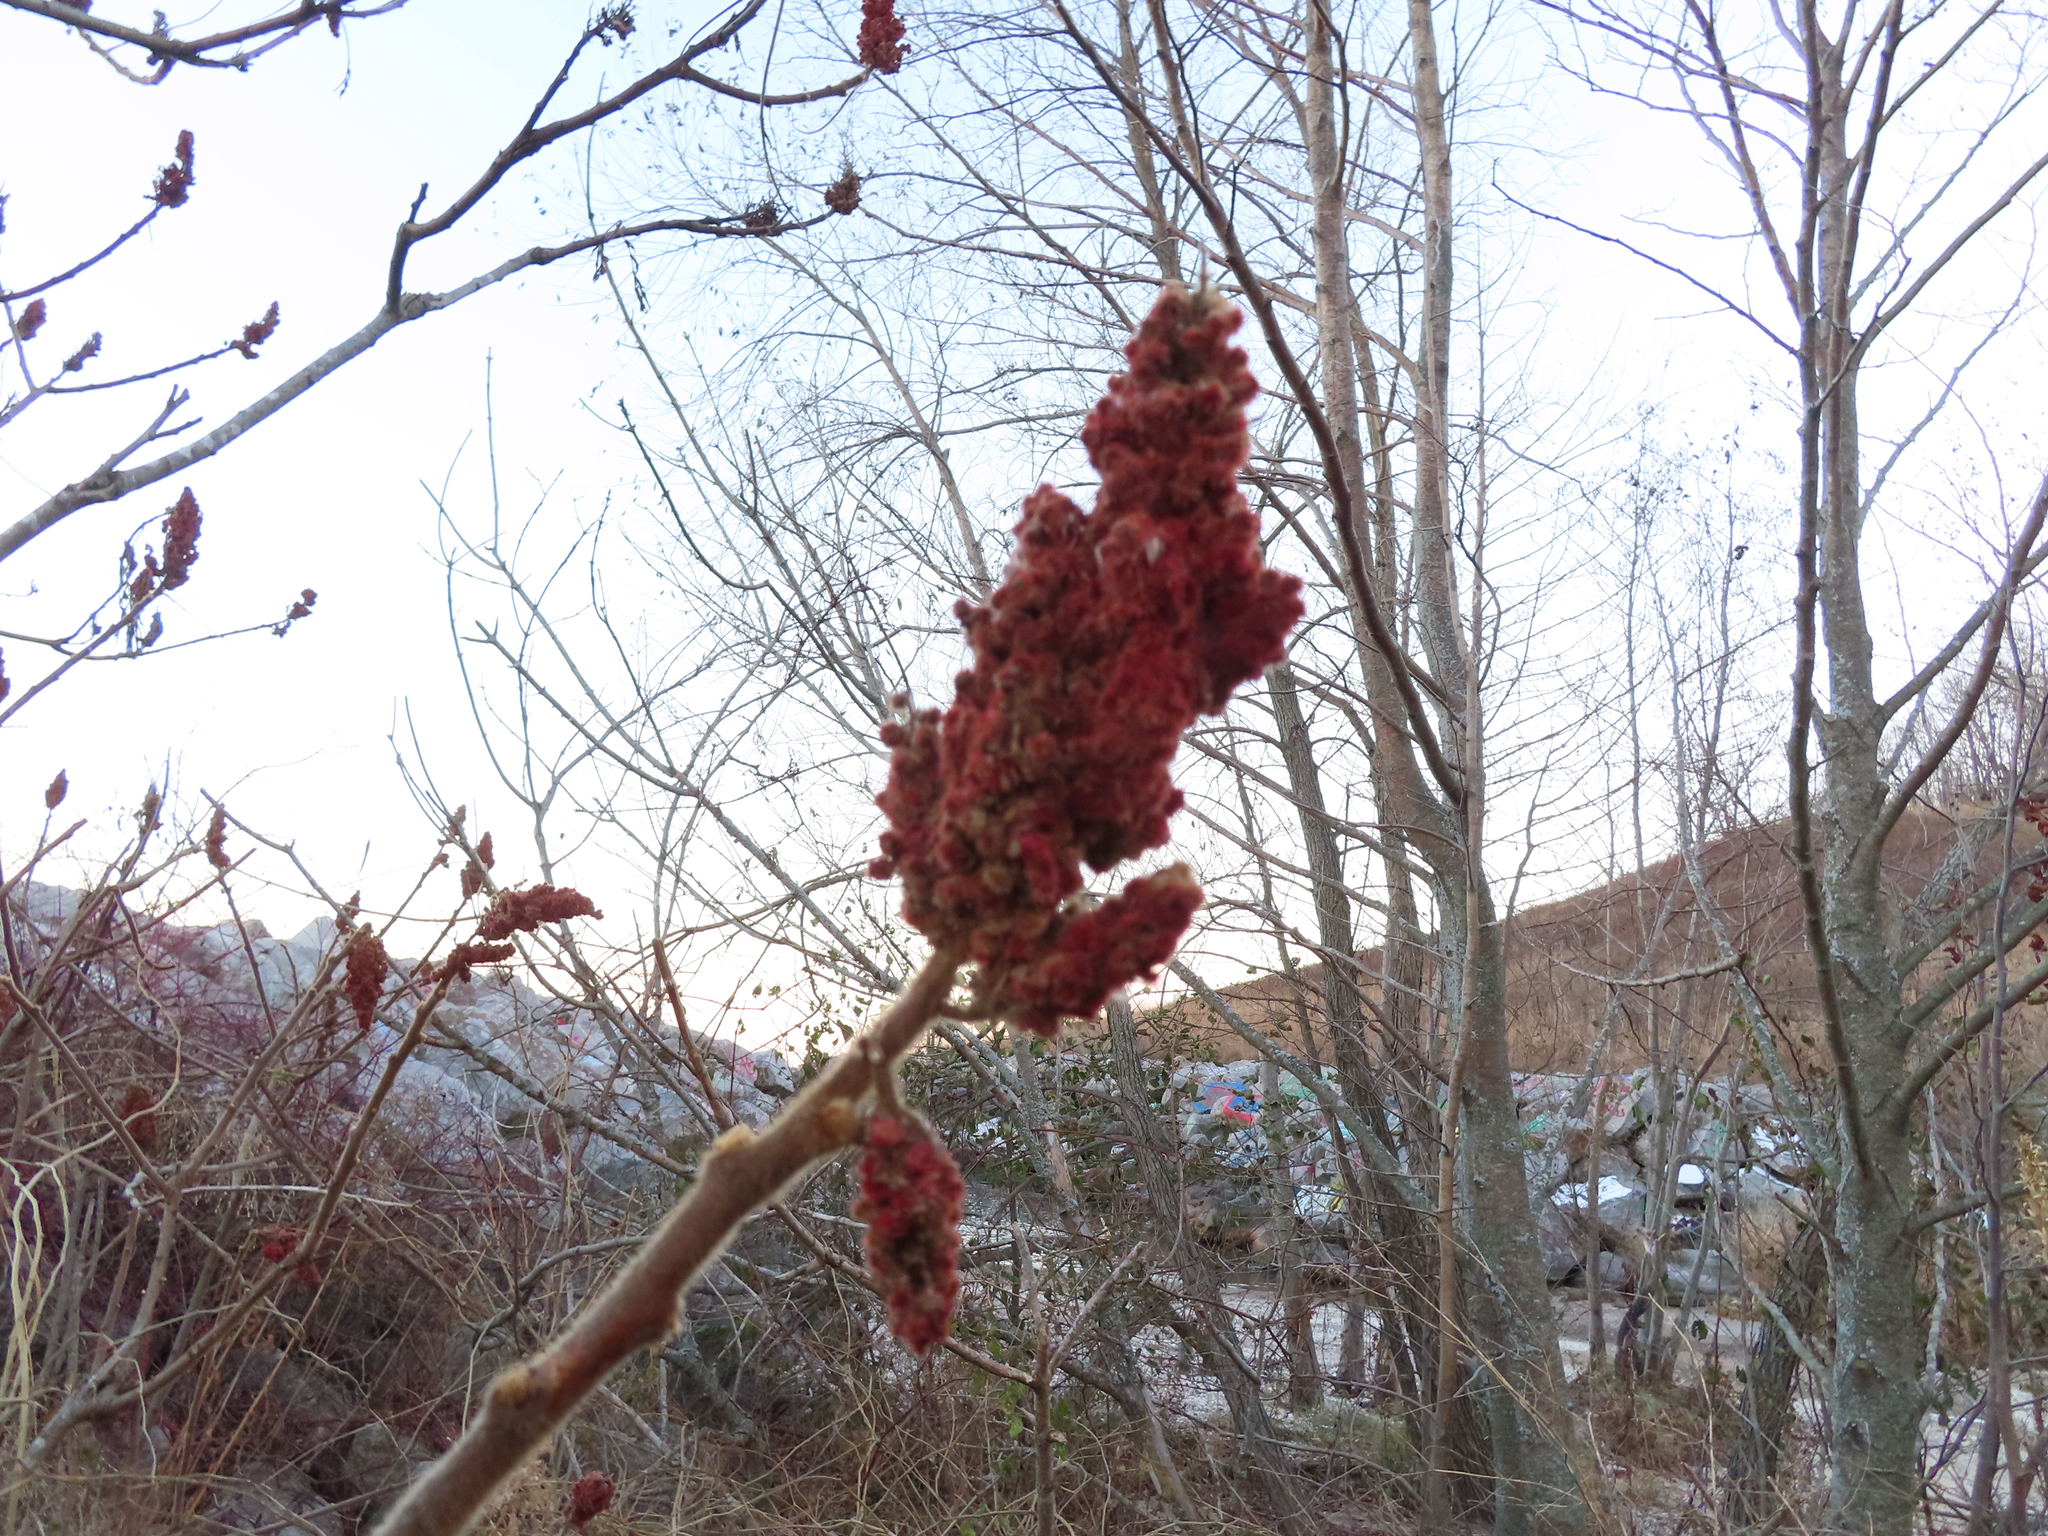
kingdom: Plantae
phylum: Tracheophyta
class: Magnoliopsida
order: Sapindales
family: Anacardiaceae
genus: Rhus
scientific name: Rhus typhina
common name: Staghorn sumac
